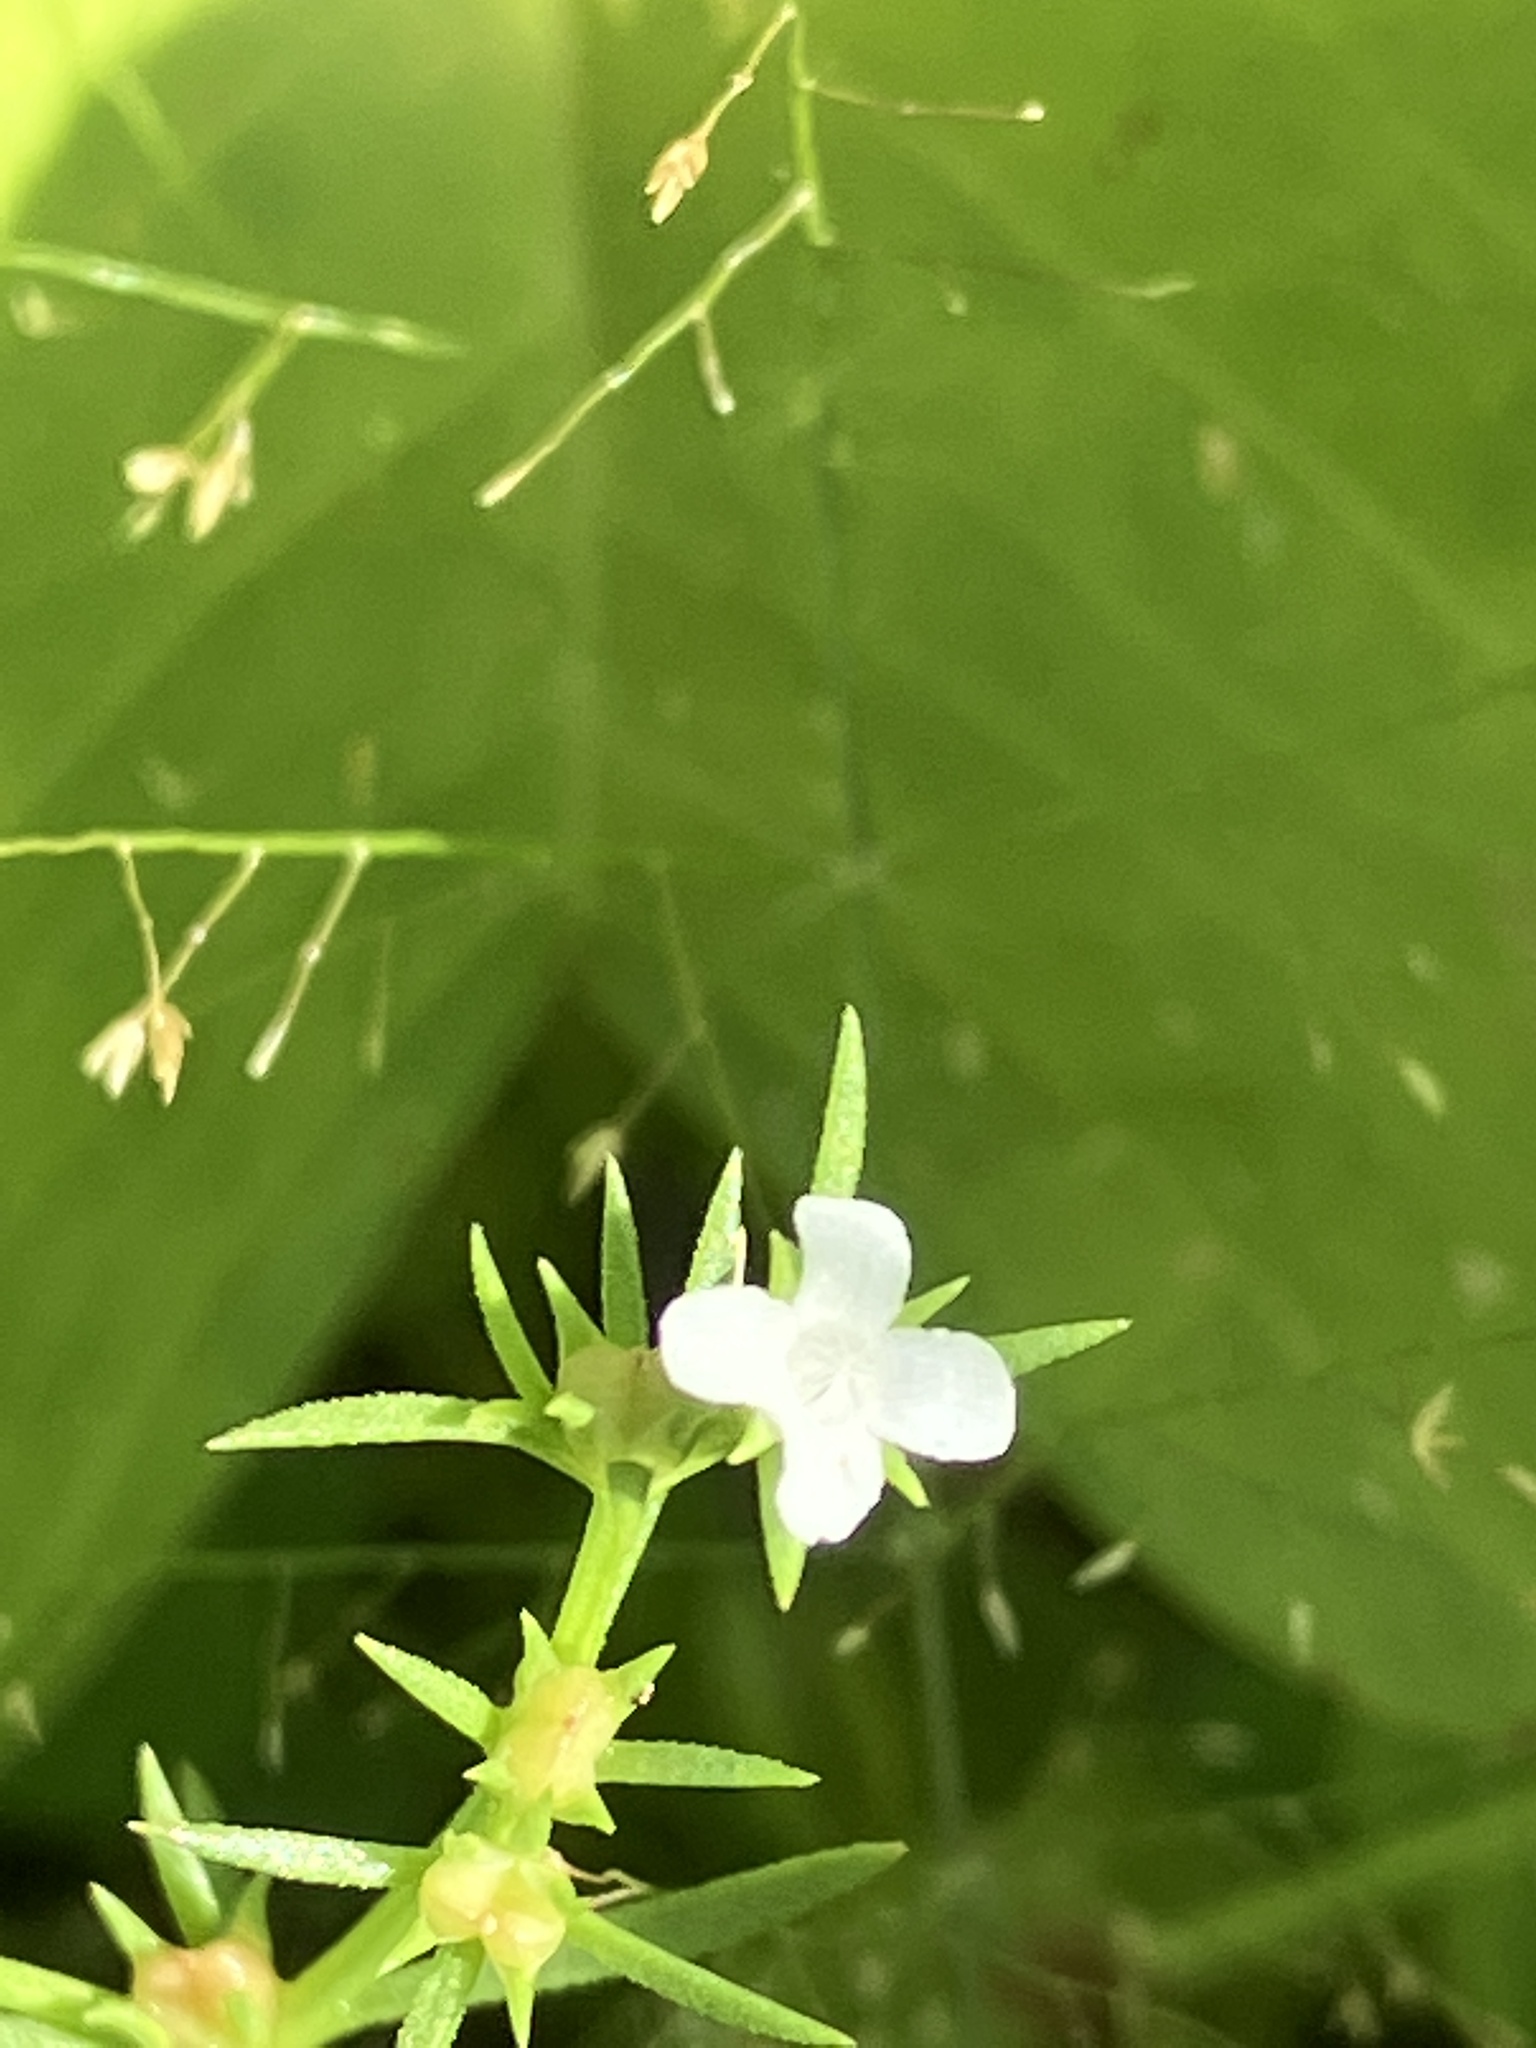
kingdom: Plantae
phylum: Tracheophyta
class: Magnoliopsida
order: Lamiales
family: Tetrachondraceae
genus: Polypremum
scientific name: Polypremum procumbens
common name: Juniper-leaf
